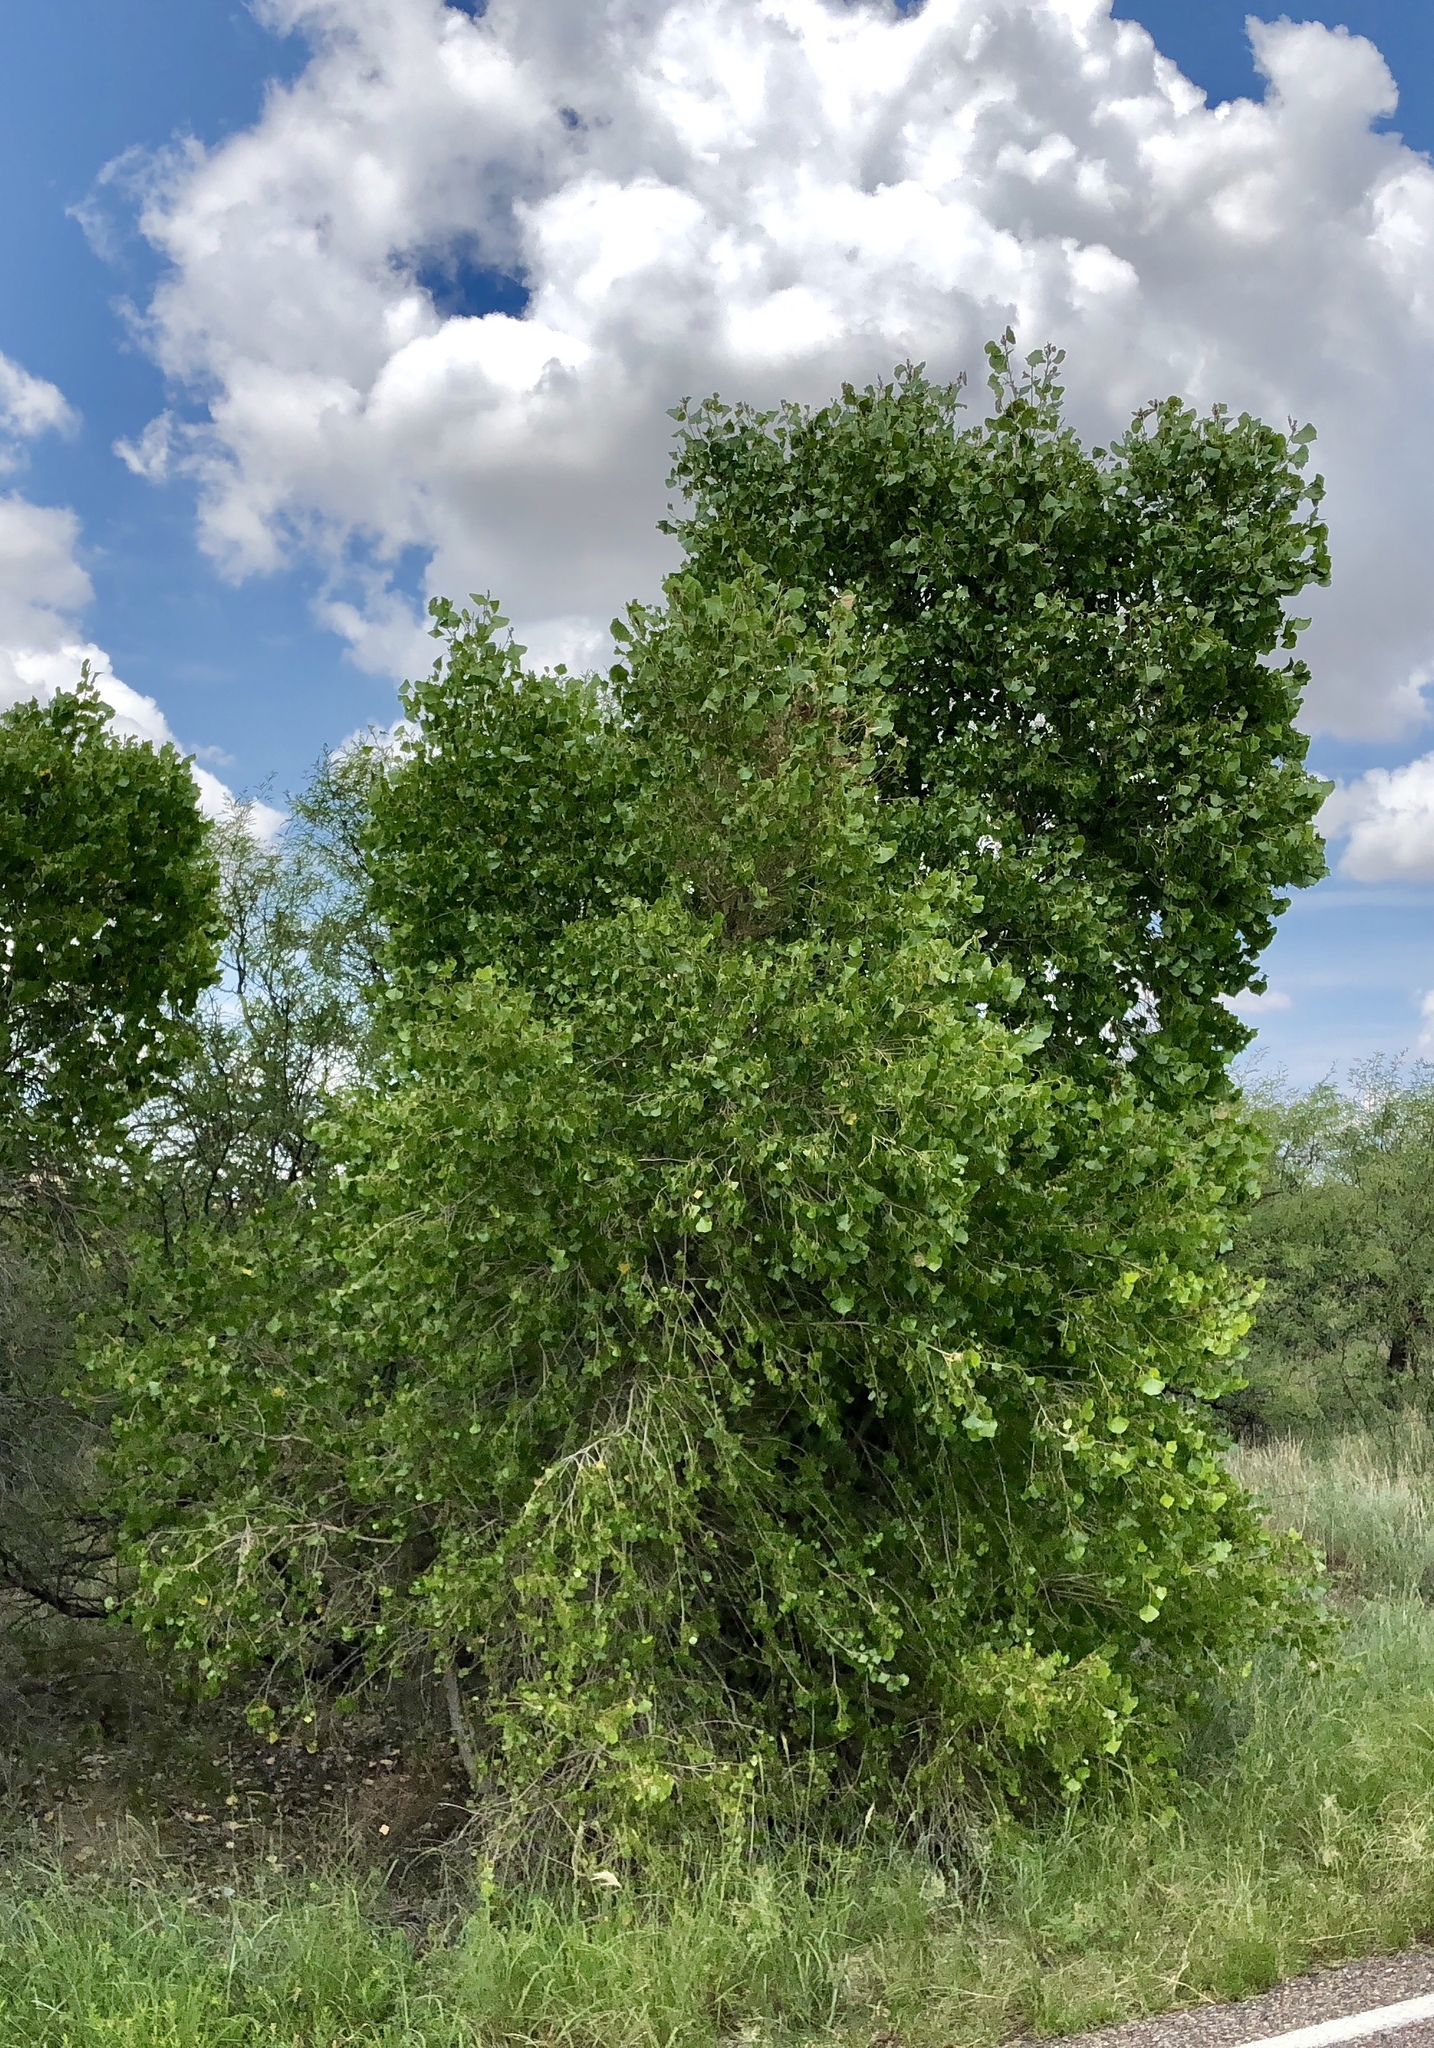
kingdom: Plantae
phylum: Tracheophyta
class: Magnoliopsida
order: Malpighiales
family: Salicaceae
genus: Populus
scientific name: Populus fremontii
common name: Fremont's cottonwood
